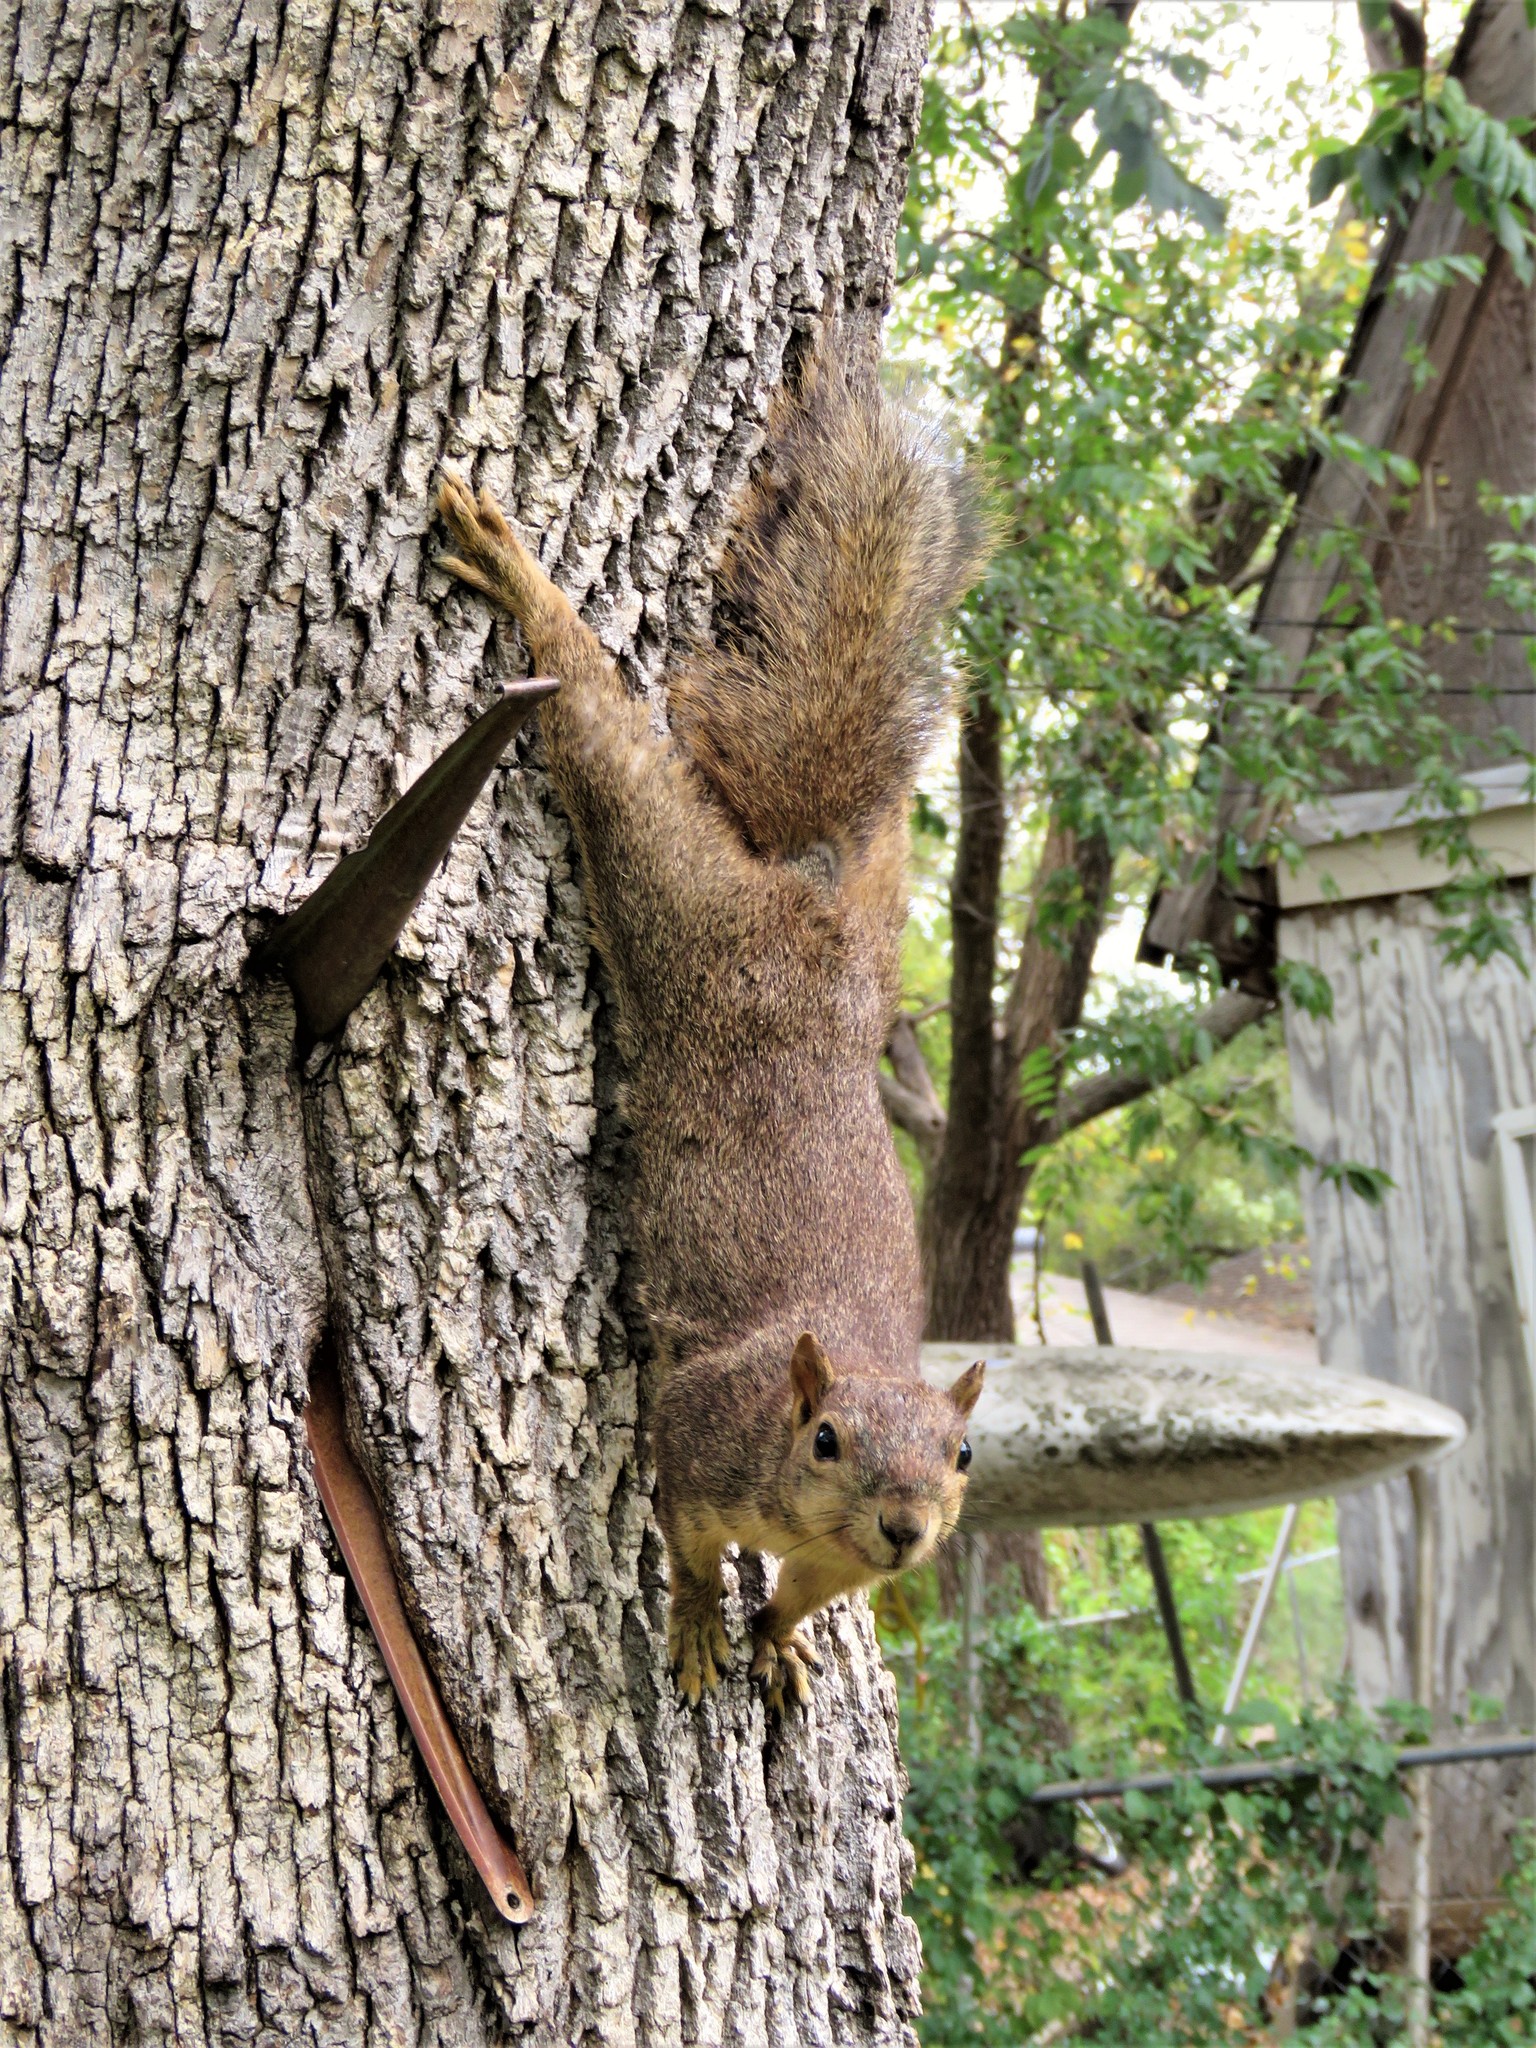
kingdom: Animalia
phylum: Chordata
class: Mammalia
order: Rodentia
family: Sciuridae
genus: Sciurus
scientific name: Sciurus niger
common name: Fox squirrel
